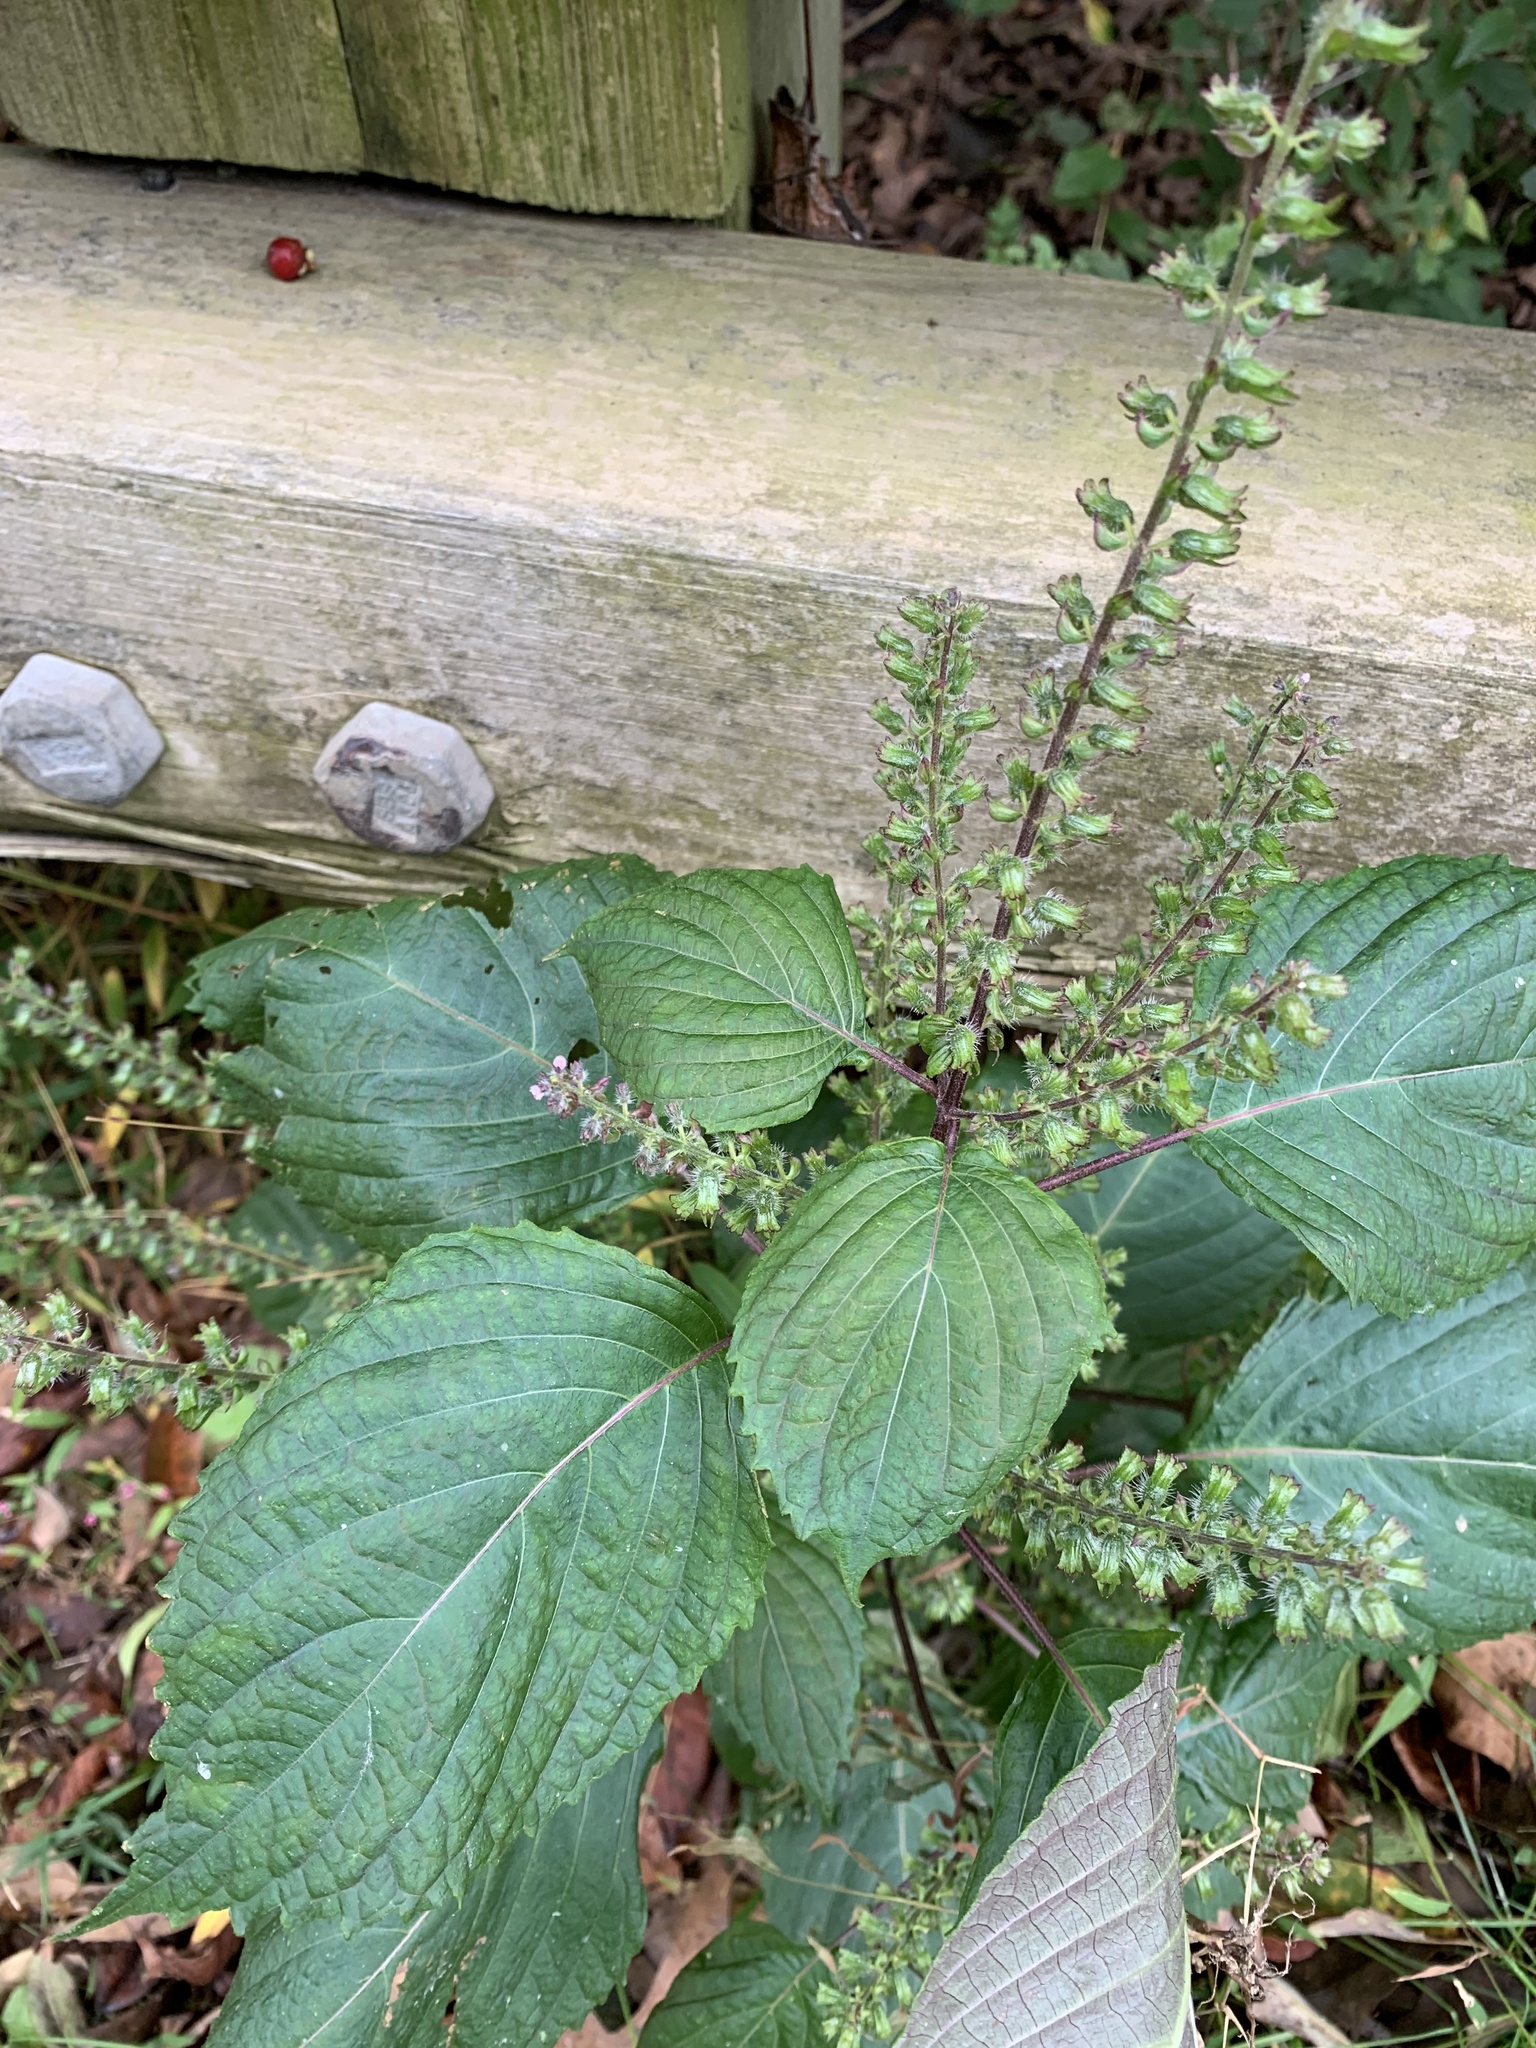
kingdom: Plantae
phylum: Tracheophyta
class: Magnoliopsida
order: Lamiales
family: Lamiaceae
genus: Perilla
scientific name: Perilla frutescens
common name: Perilla
